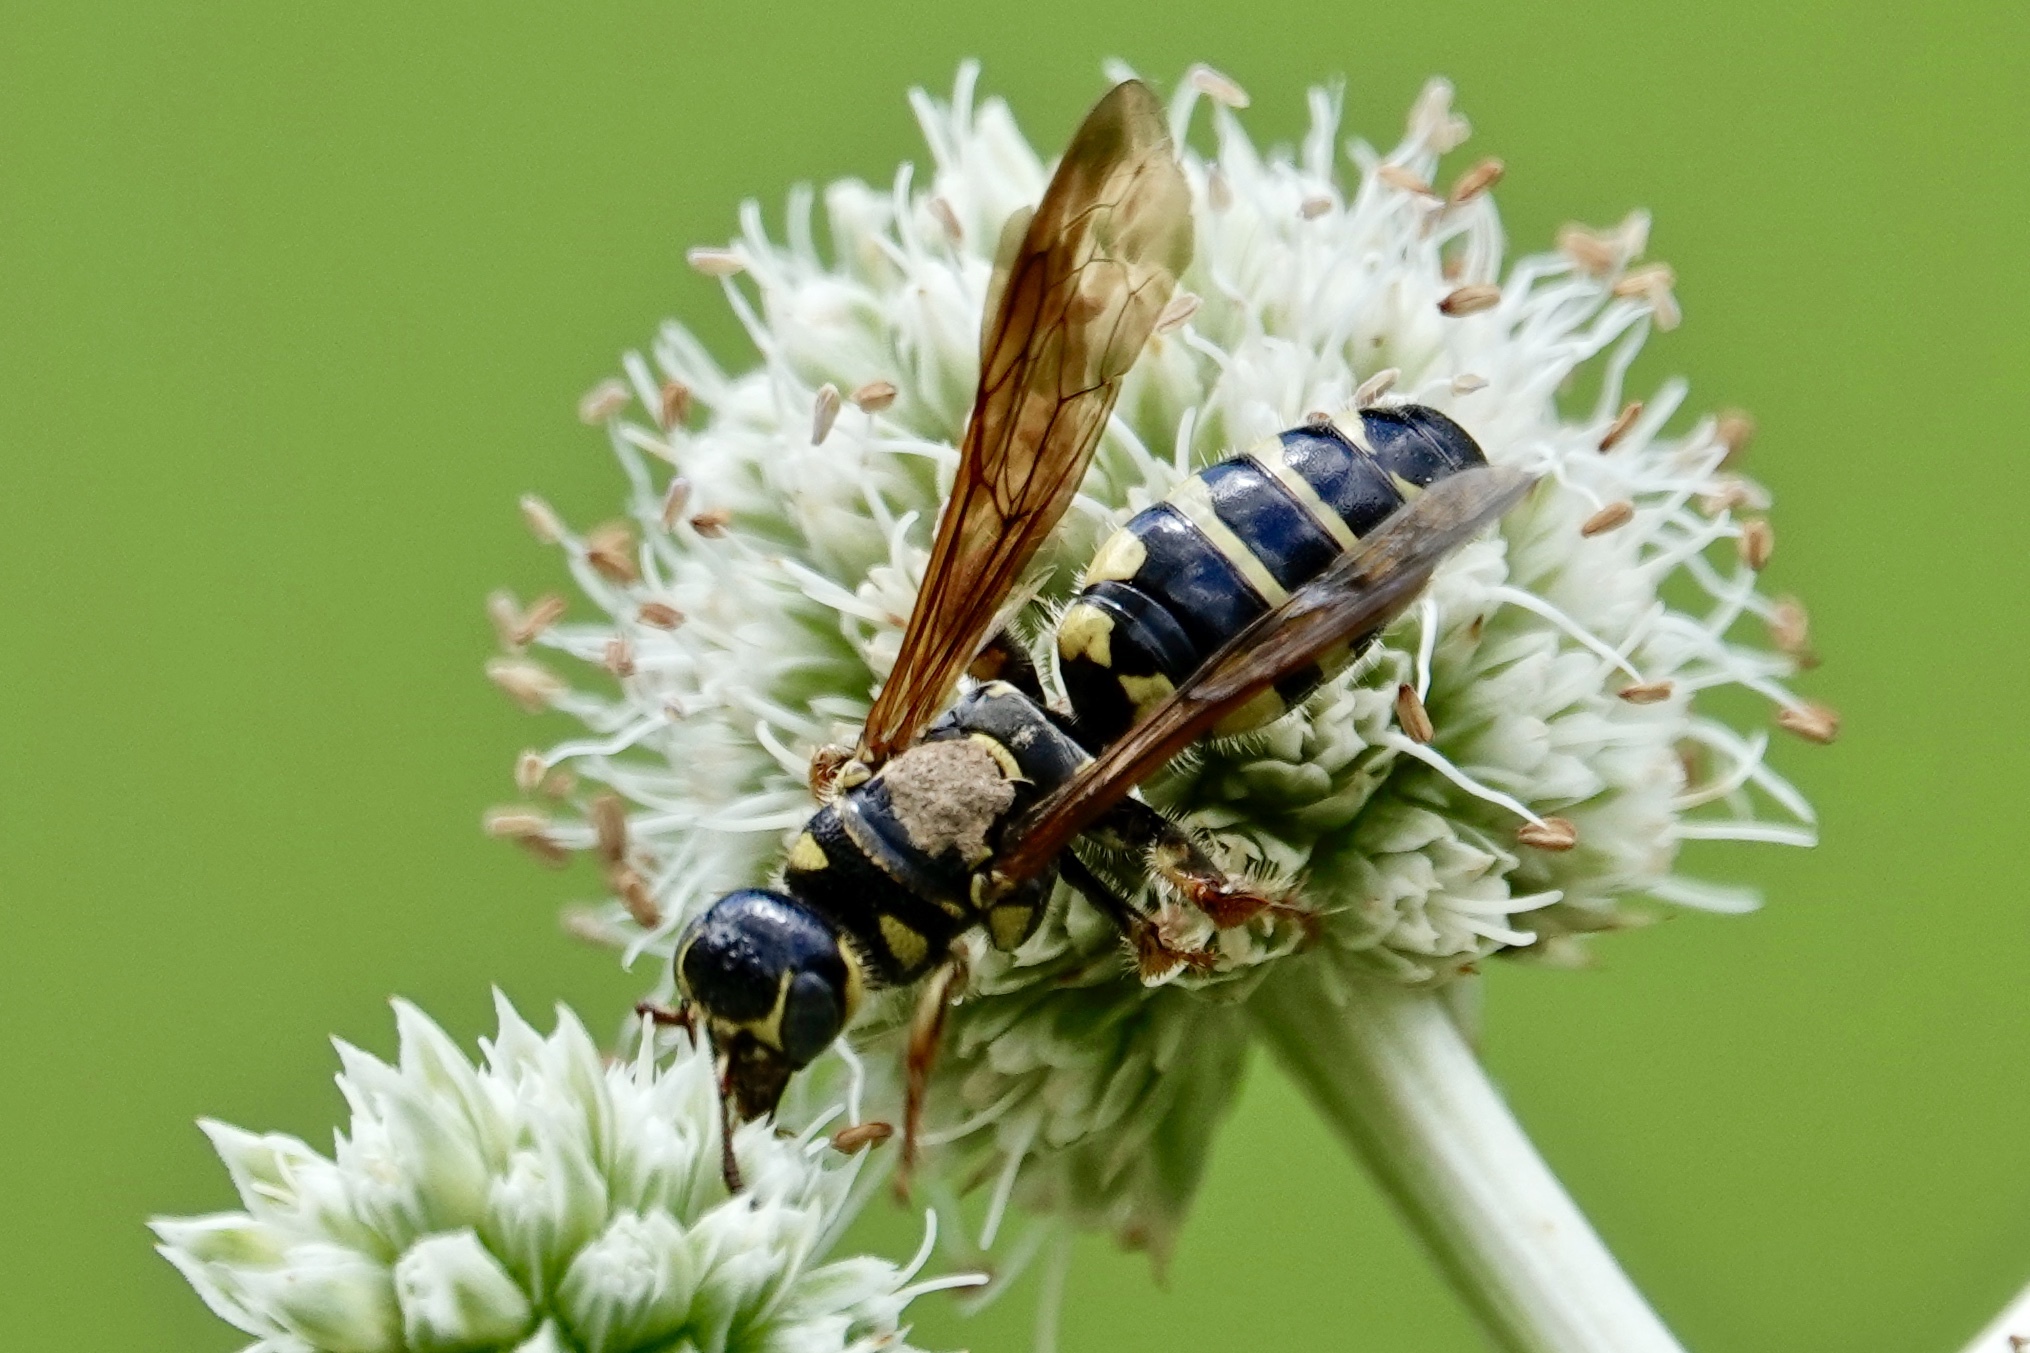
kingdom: Animalia
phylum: Arthropoda
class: Insecta
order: Hymenoptera
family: Tiphiidae
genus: Myzinum
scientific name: Myzinum quinquecinctum
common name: Five-banded thynnid wasp
